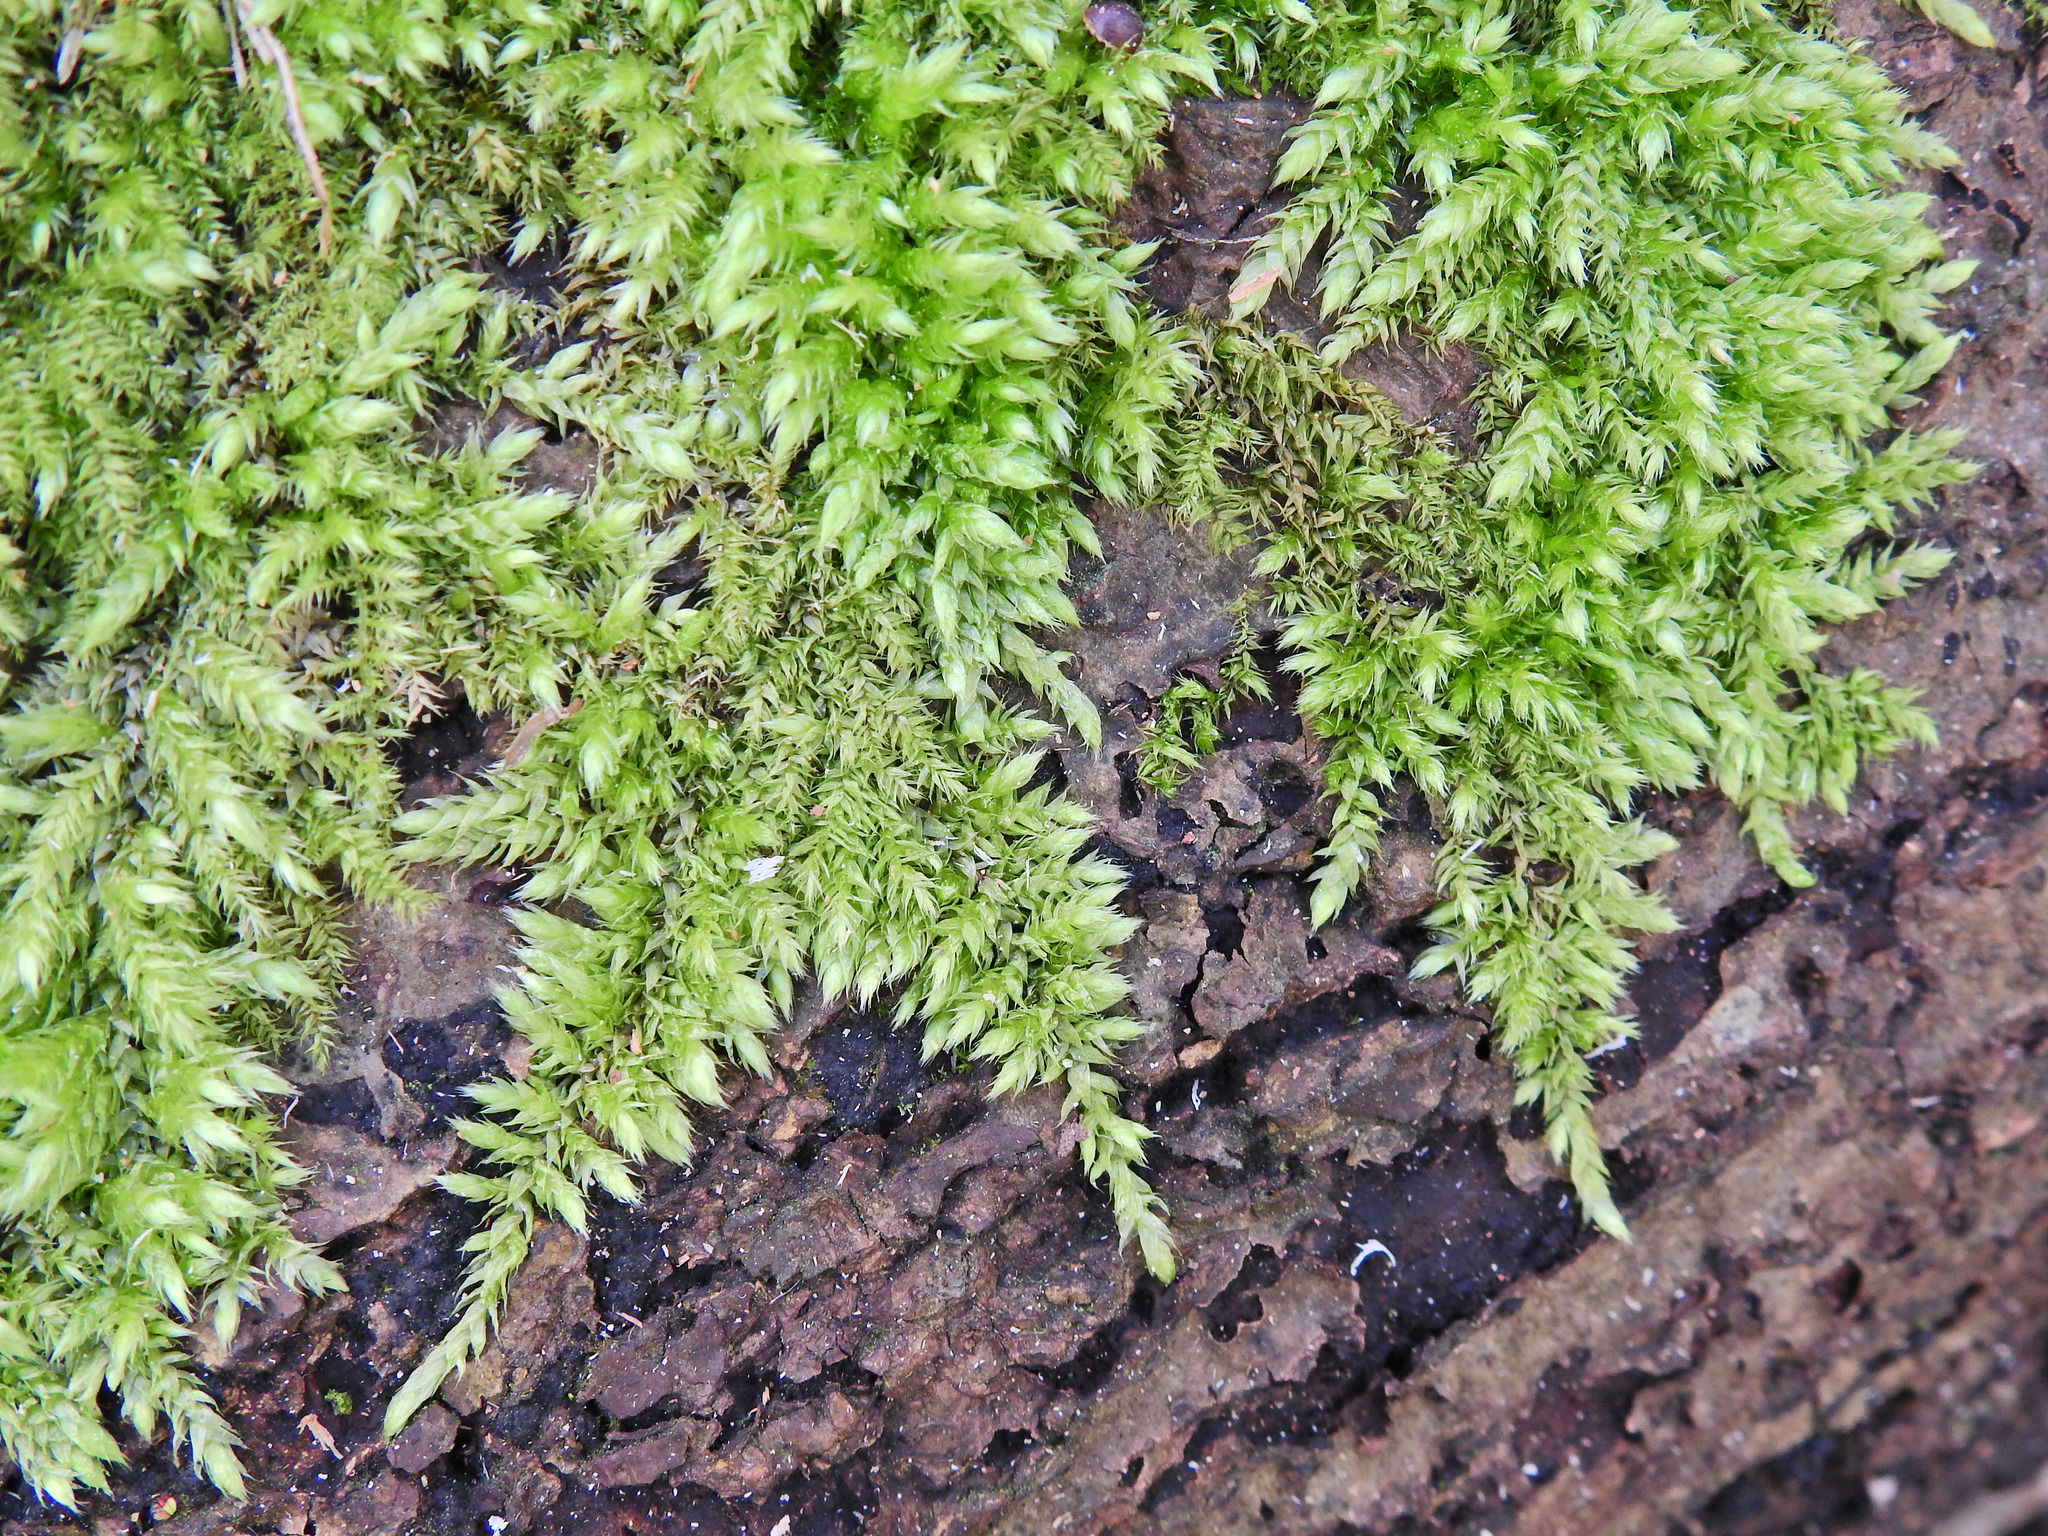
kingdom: Plantae
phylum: Bryophyta
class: Bryopsida
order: Hypnales
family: Brachytheciaceae
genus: Brachythecium
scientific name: Brachythecium rutabulum
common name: Rough-stalked feather-moss
